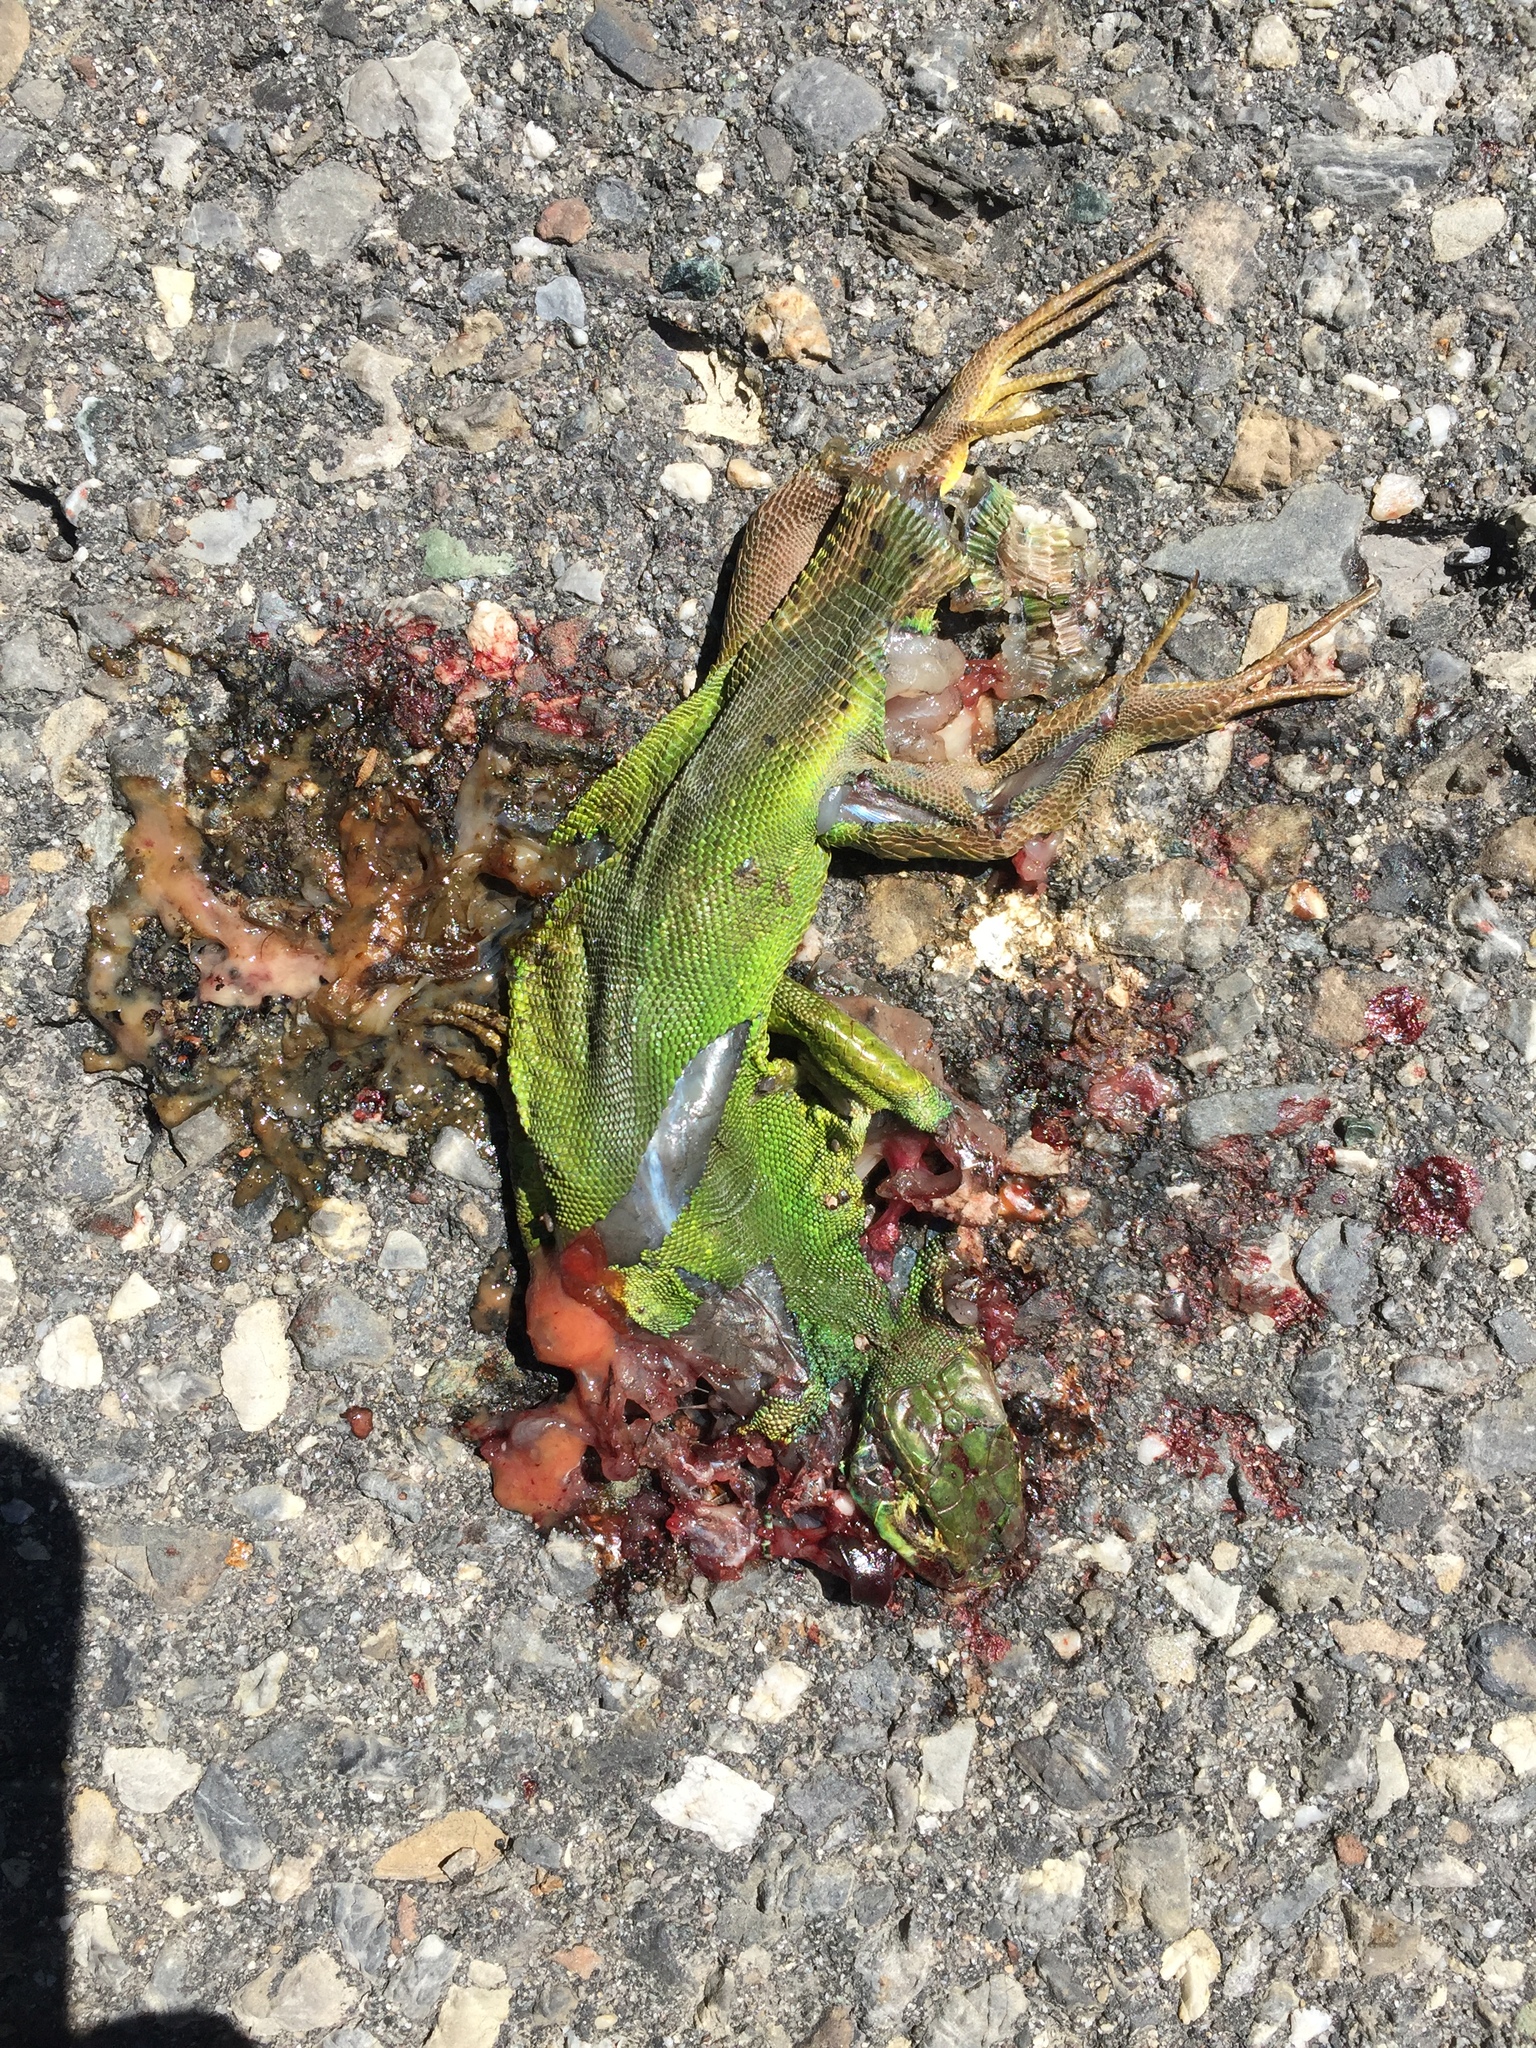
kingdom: Animalia
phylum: Chordata
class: Squamata
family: Lacertidae
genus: Lacerta
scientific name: Lacerta bilineata
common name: Western green lizard
